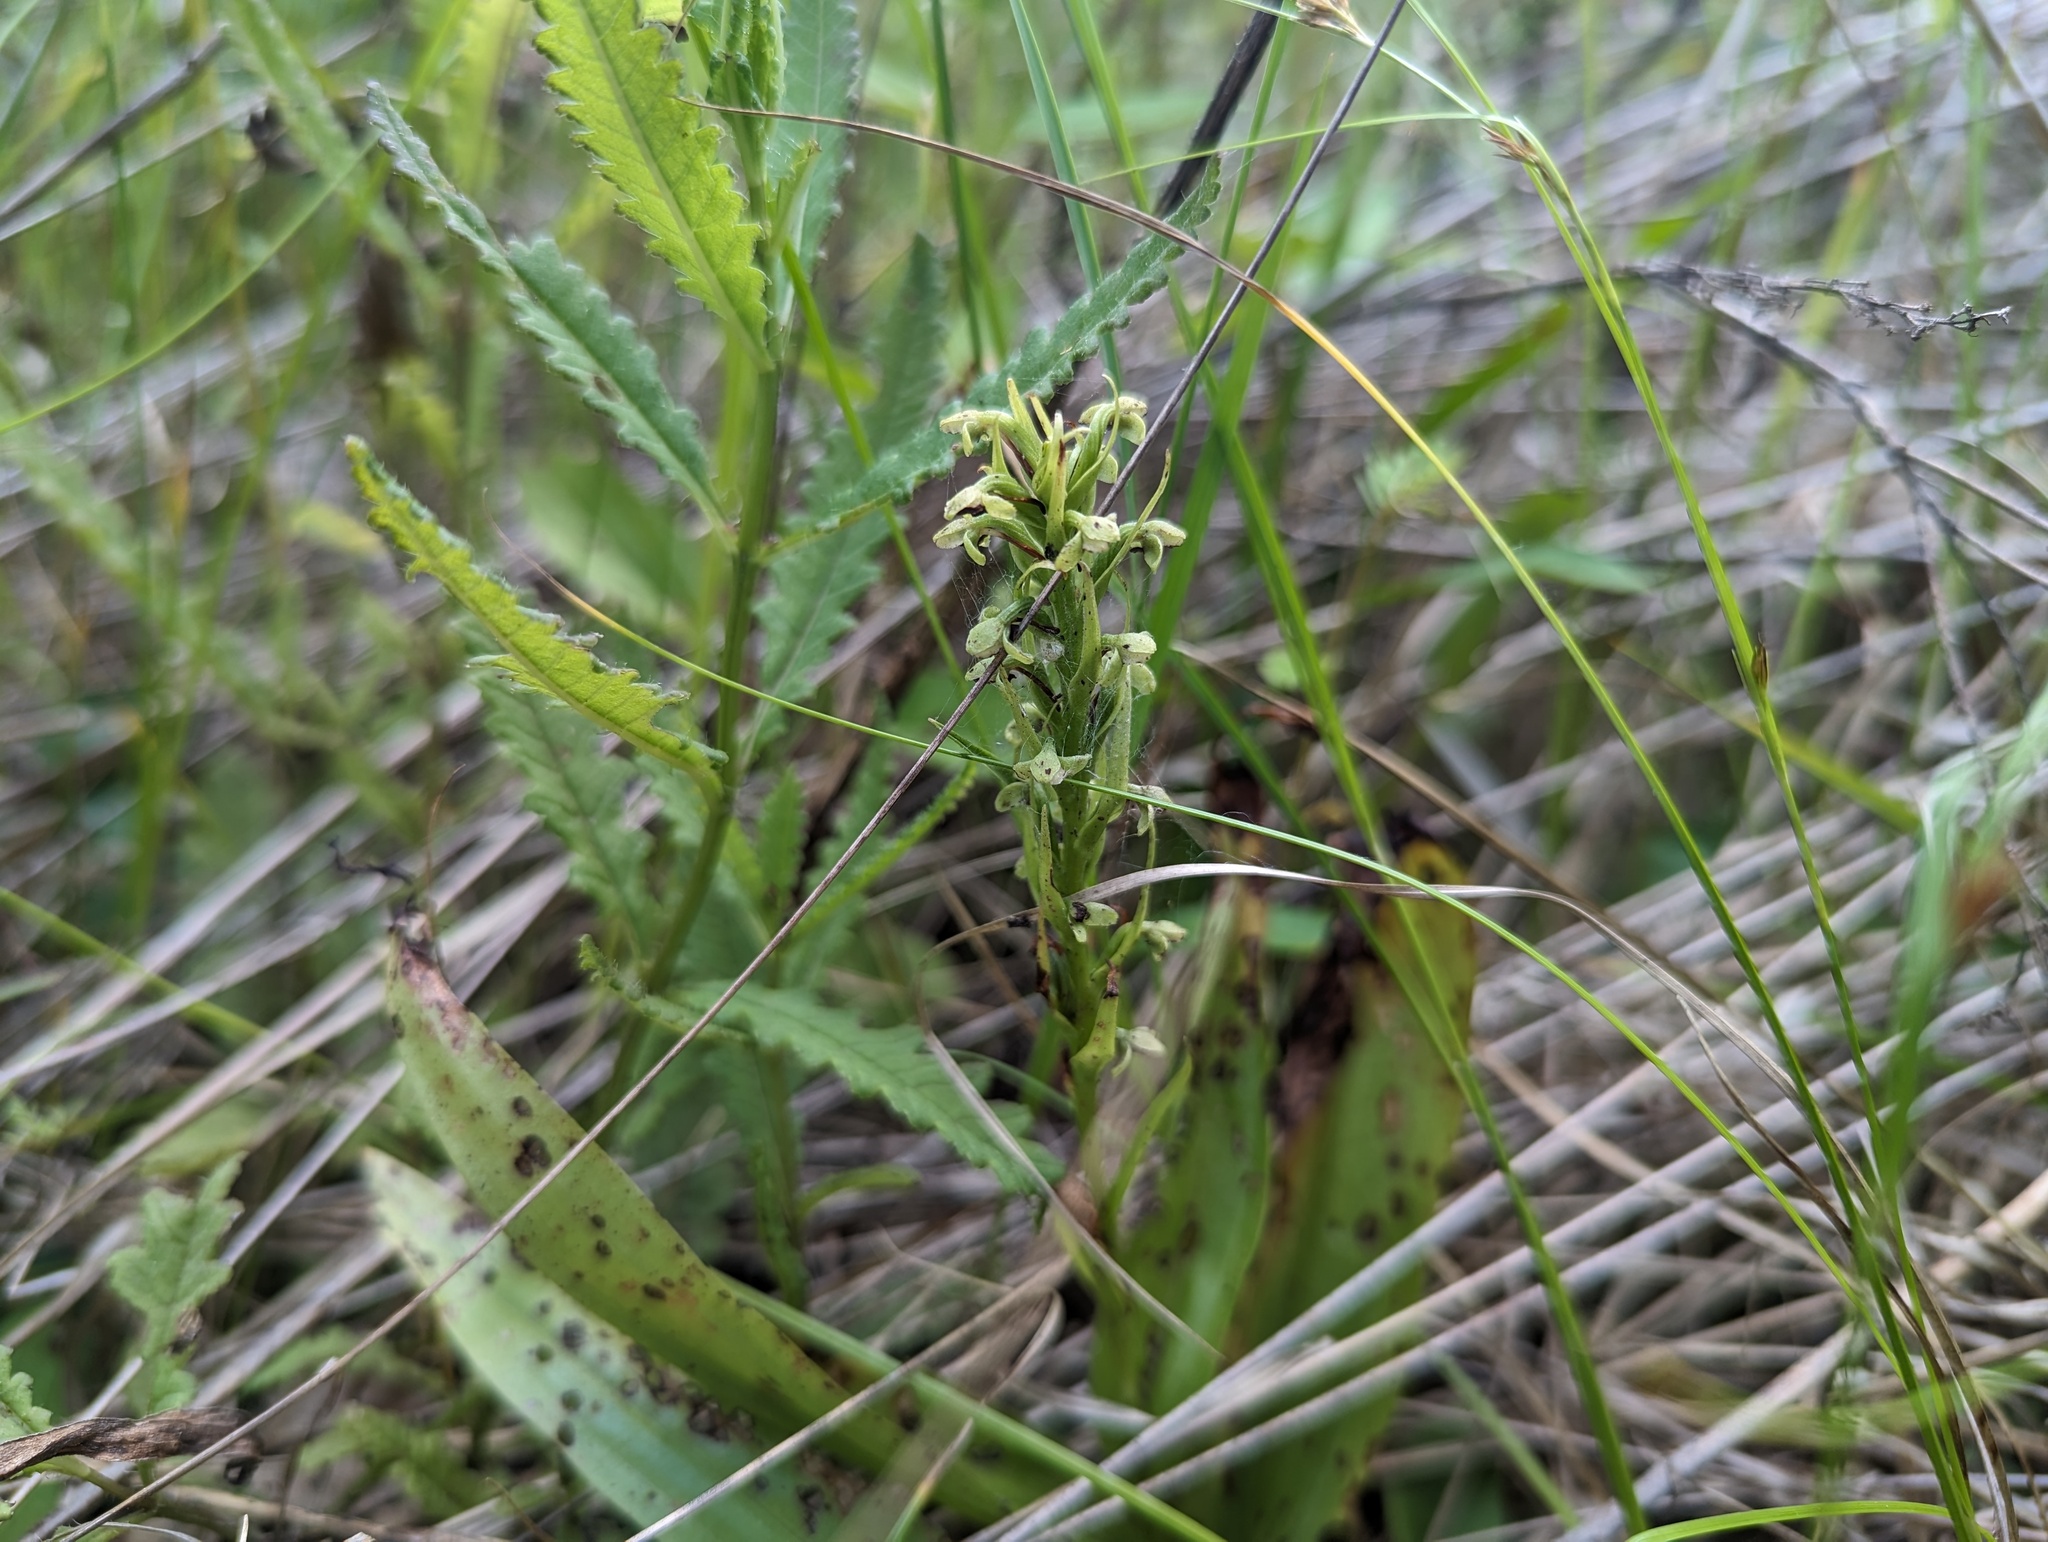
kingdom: Plantae
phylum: Tracheophyta
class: Liliopsida
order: Asparagales
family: Orchidaceae
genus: Platanthera
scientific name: Platanthera flava
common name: Gypsy-spikes
